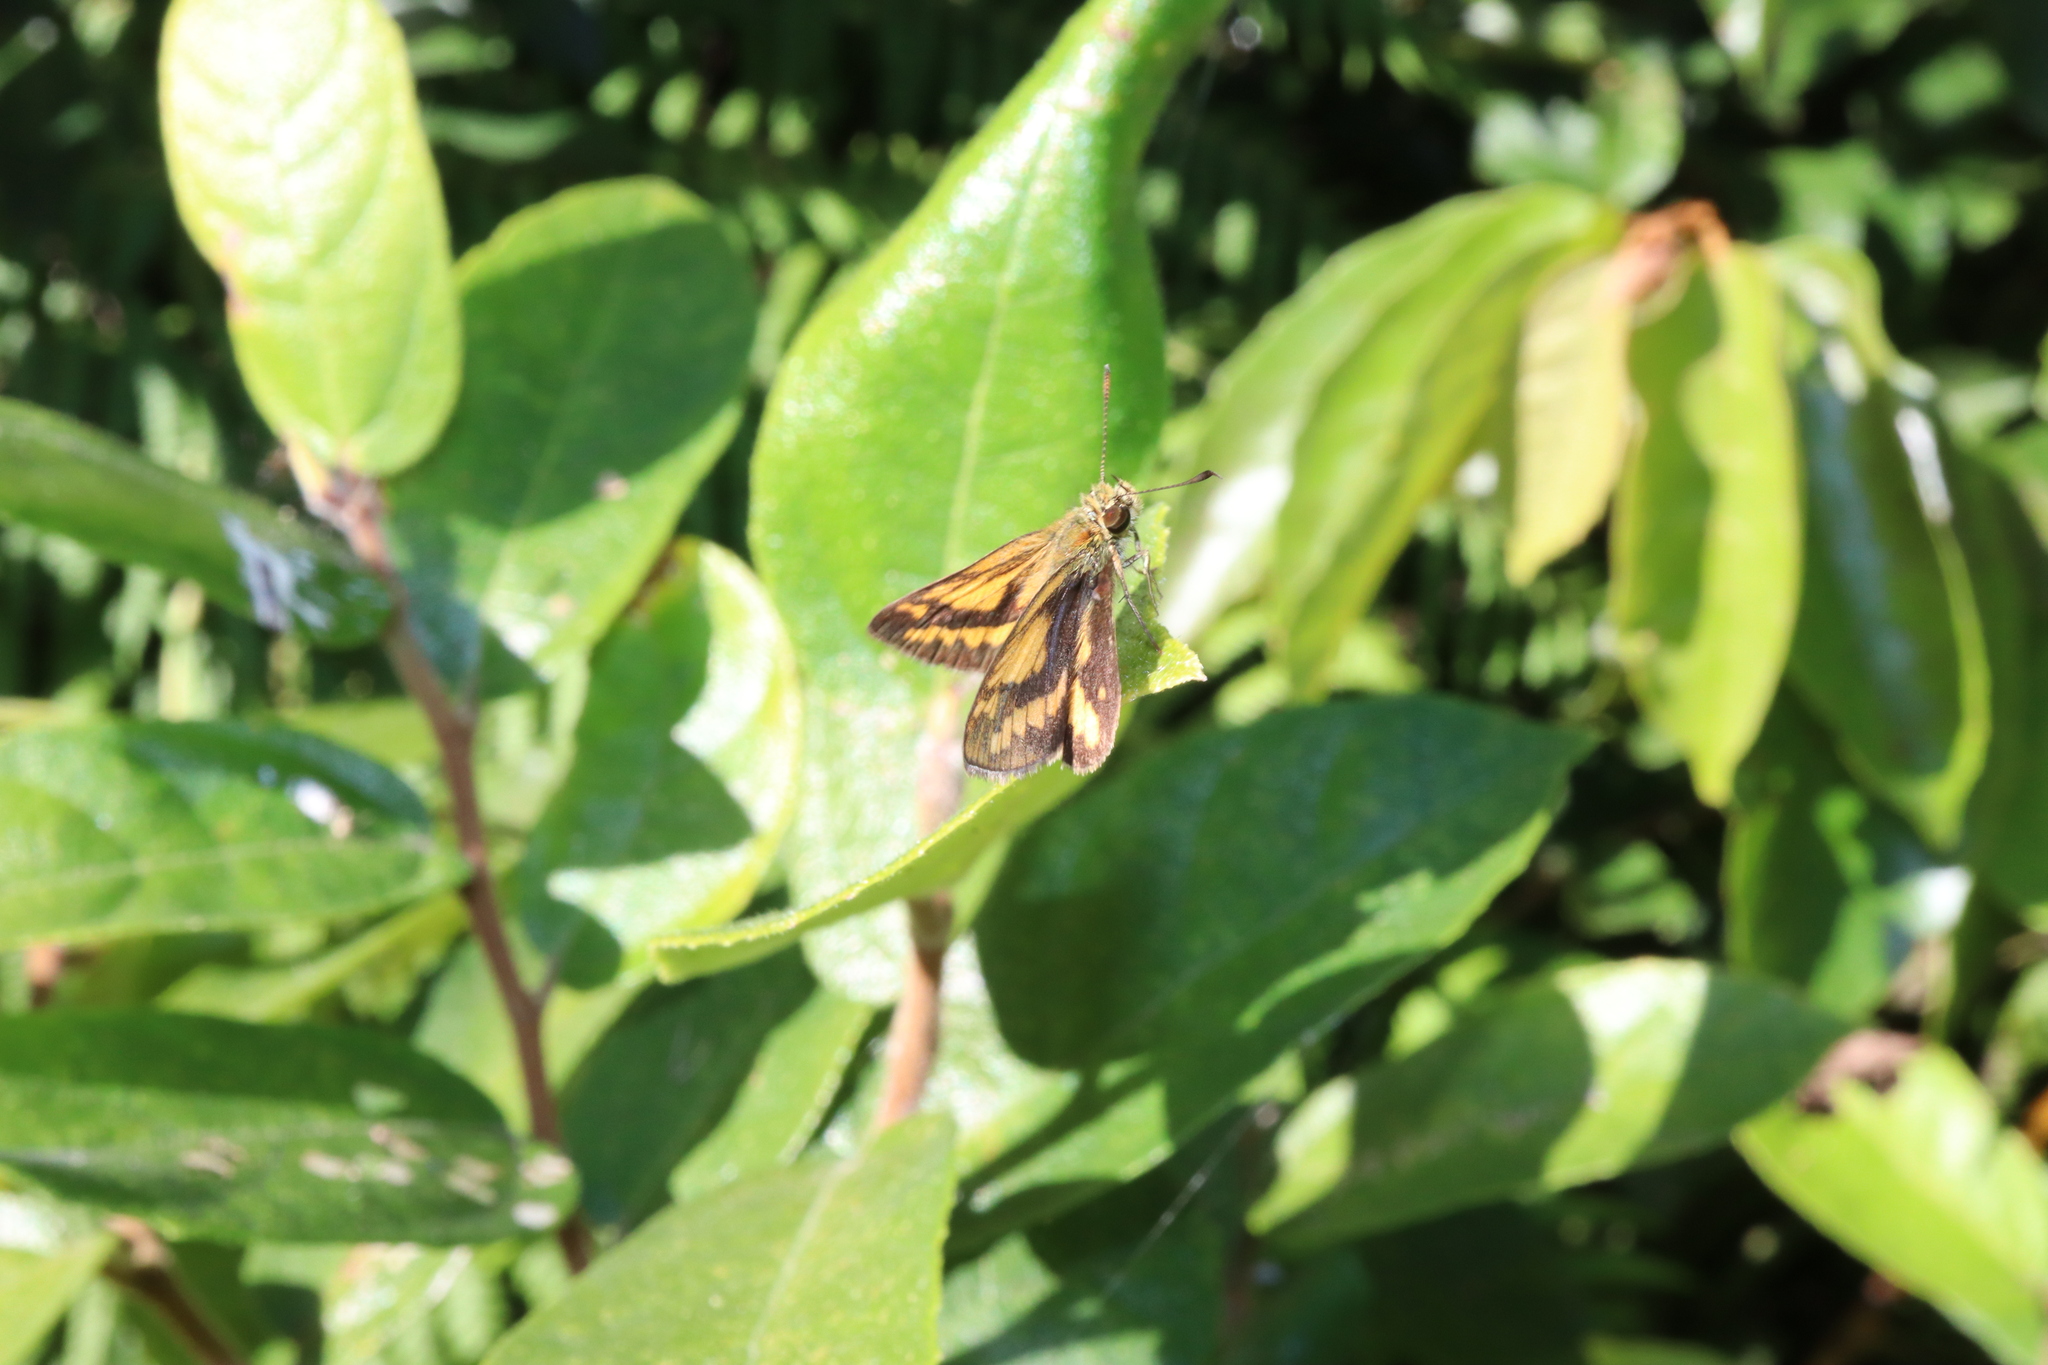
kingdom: Animalia
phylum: Arthropoda
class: Insecta
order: Lepidoptera
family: Hesperiidae
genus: Suniana
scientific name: Suniana sunias
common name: Wide-brand grass-dart
